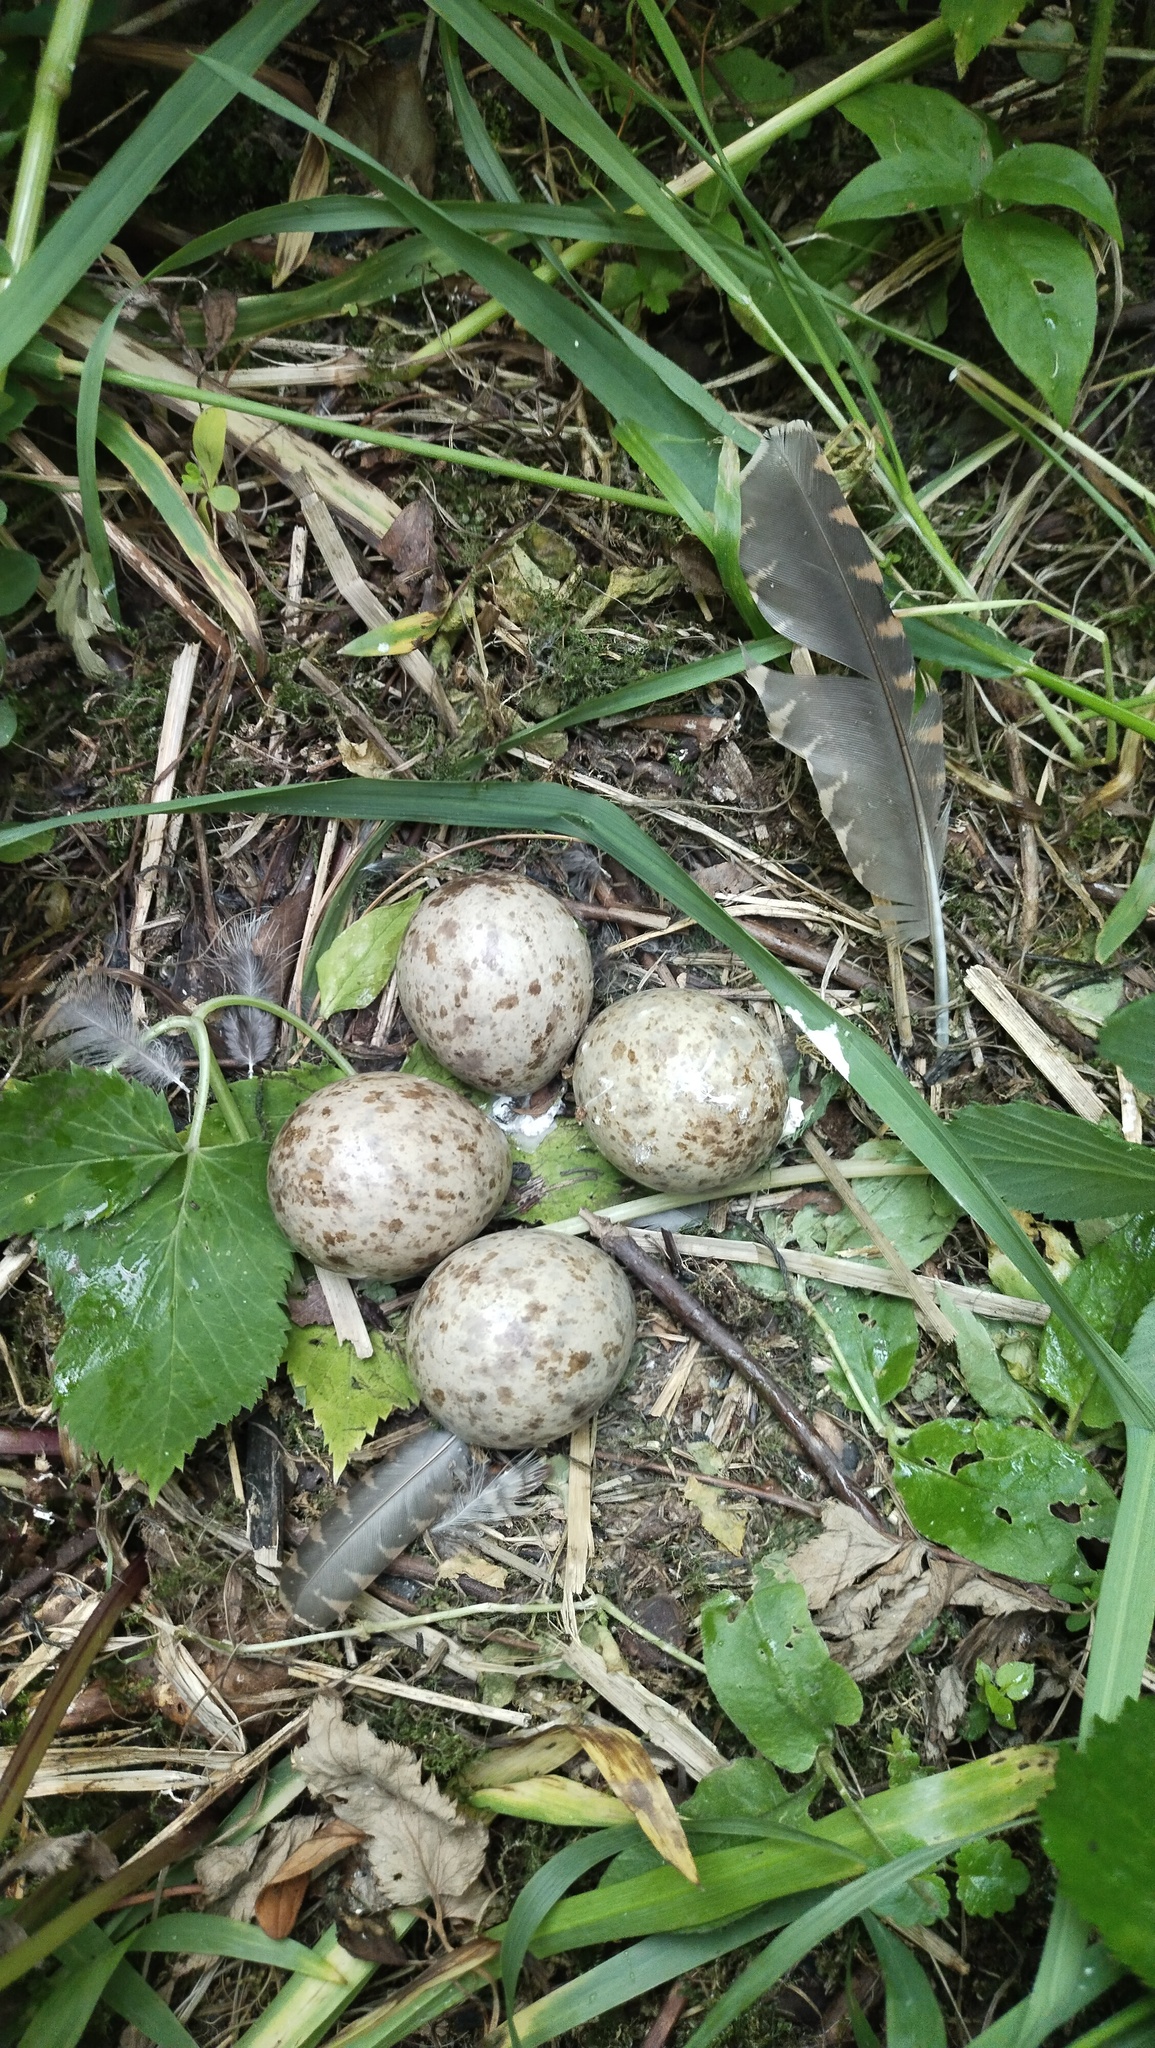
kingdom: Animalia
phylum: Chordata
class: Aves
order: Charadriiformes
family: Scolopacidae
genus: Scolopax
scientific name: Scolopax rusticola
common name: Eurasian woodcock
